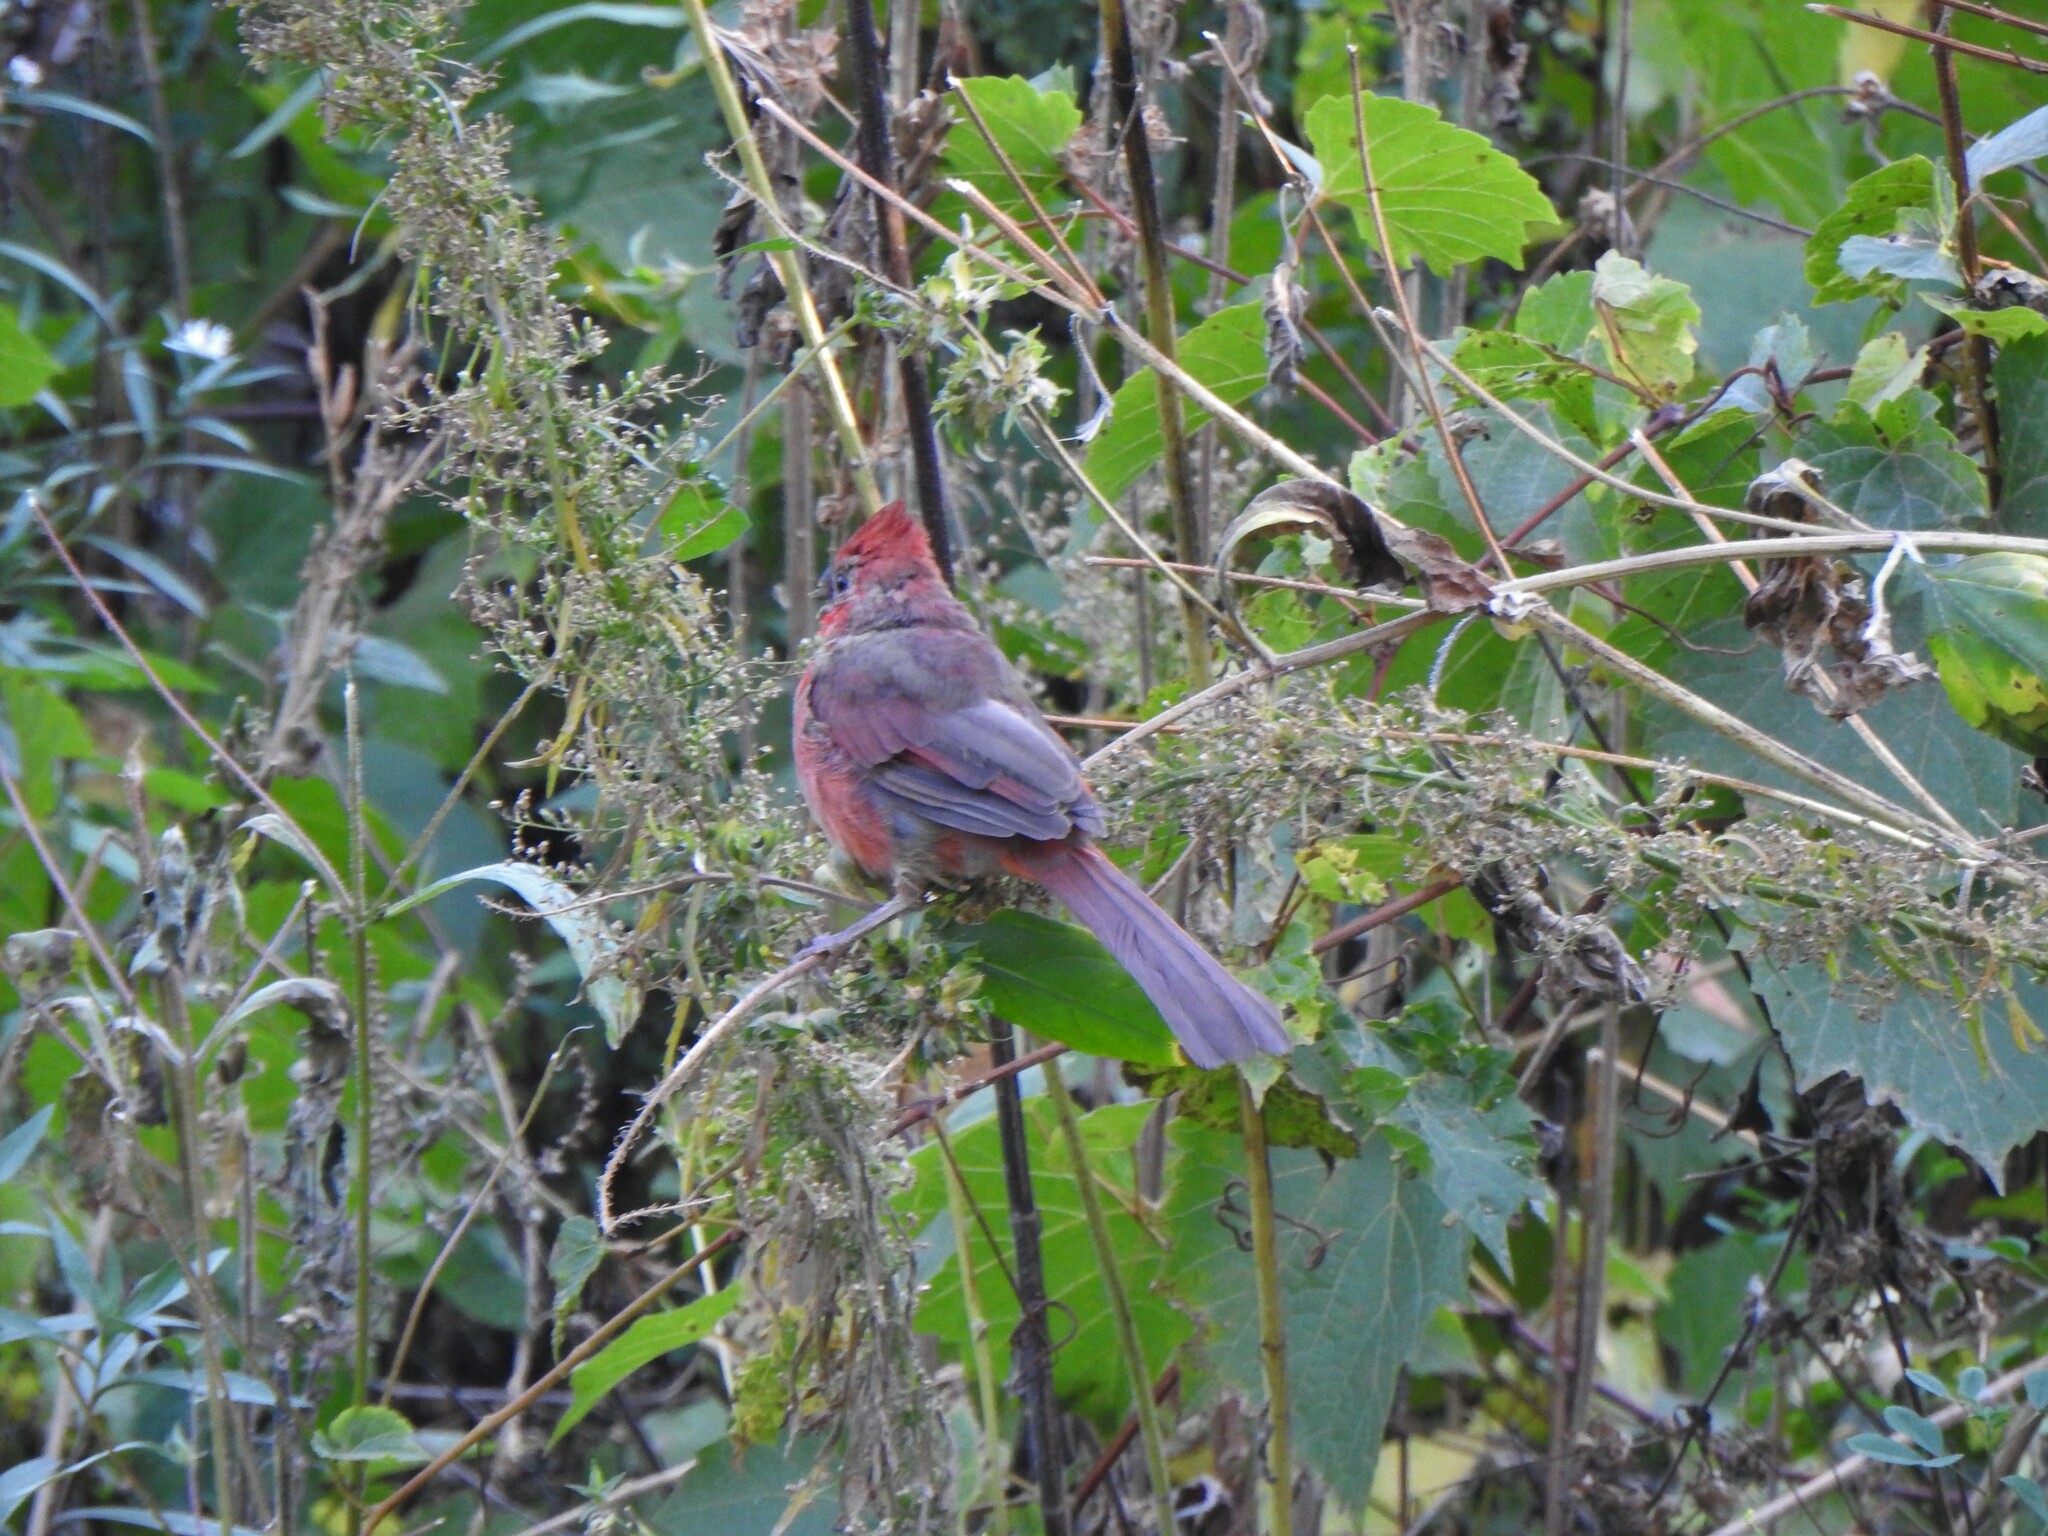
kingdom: Animalia
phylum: Chordata
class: Aves
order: Passeriformes
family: Cardinalidae
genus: Cardinalis
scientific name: Cardinalis cardinalis
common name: Northern cardinal
